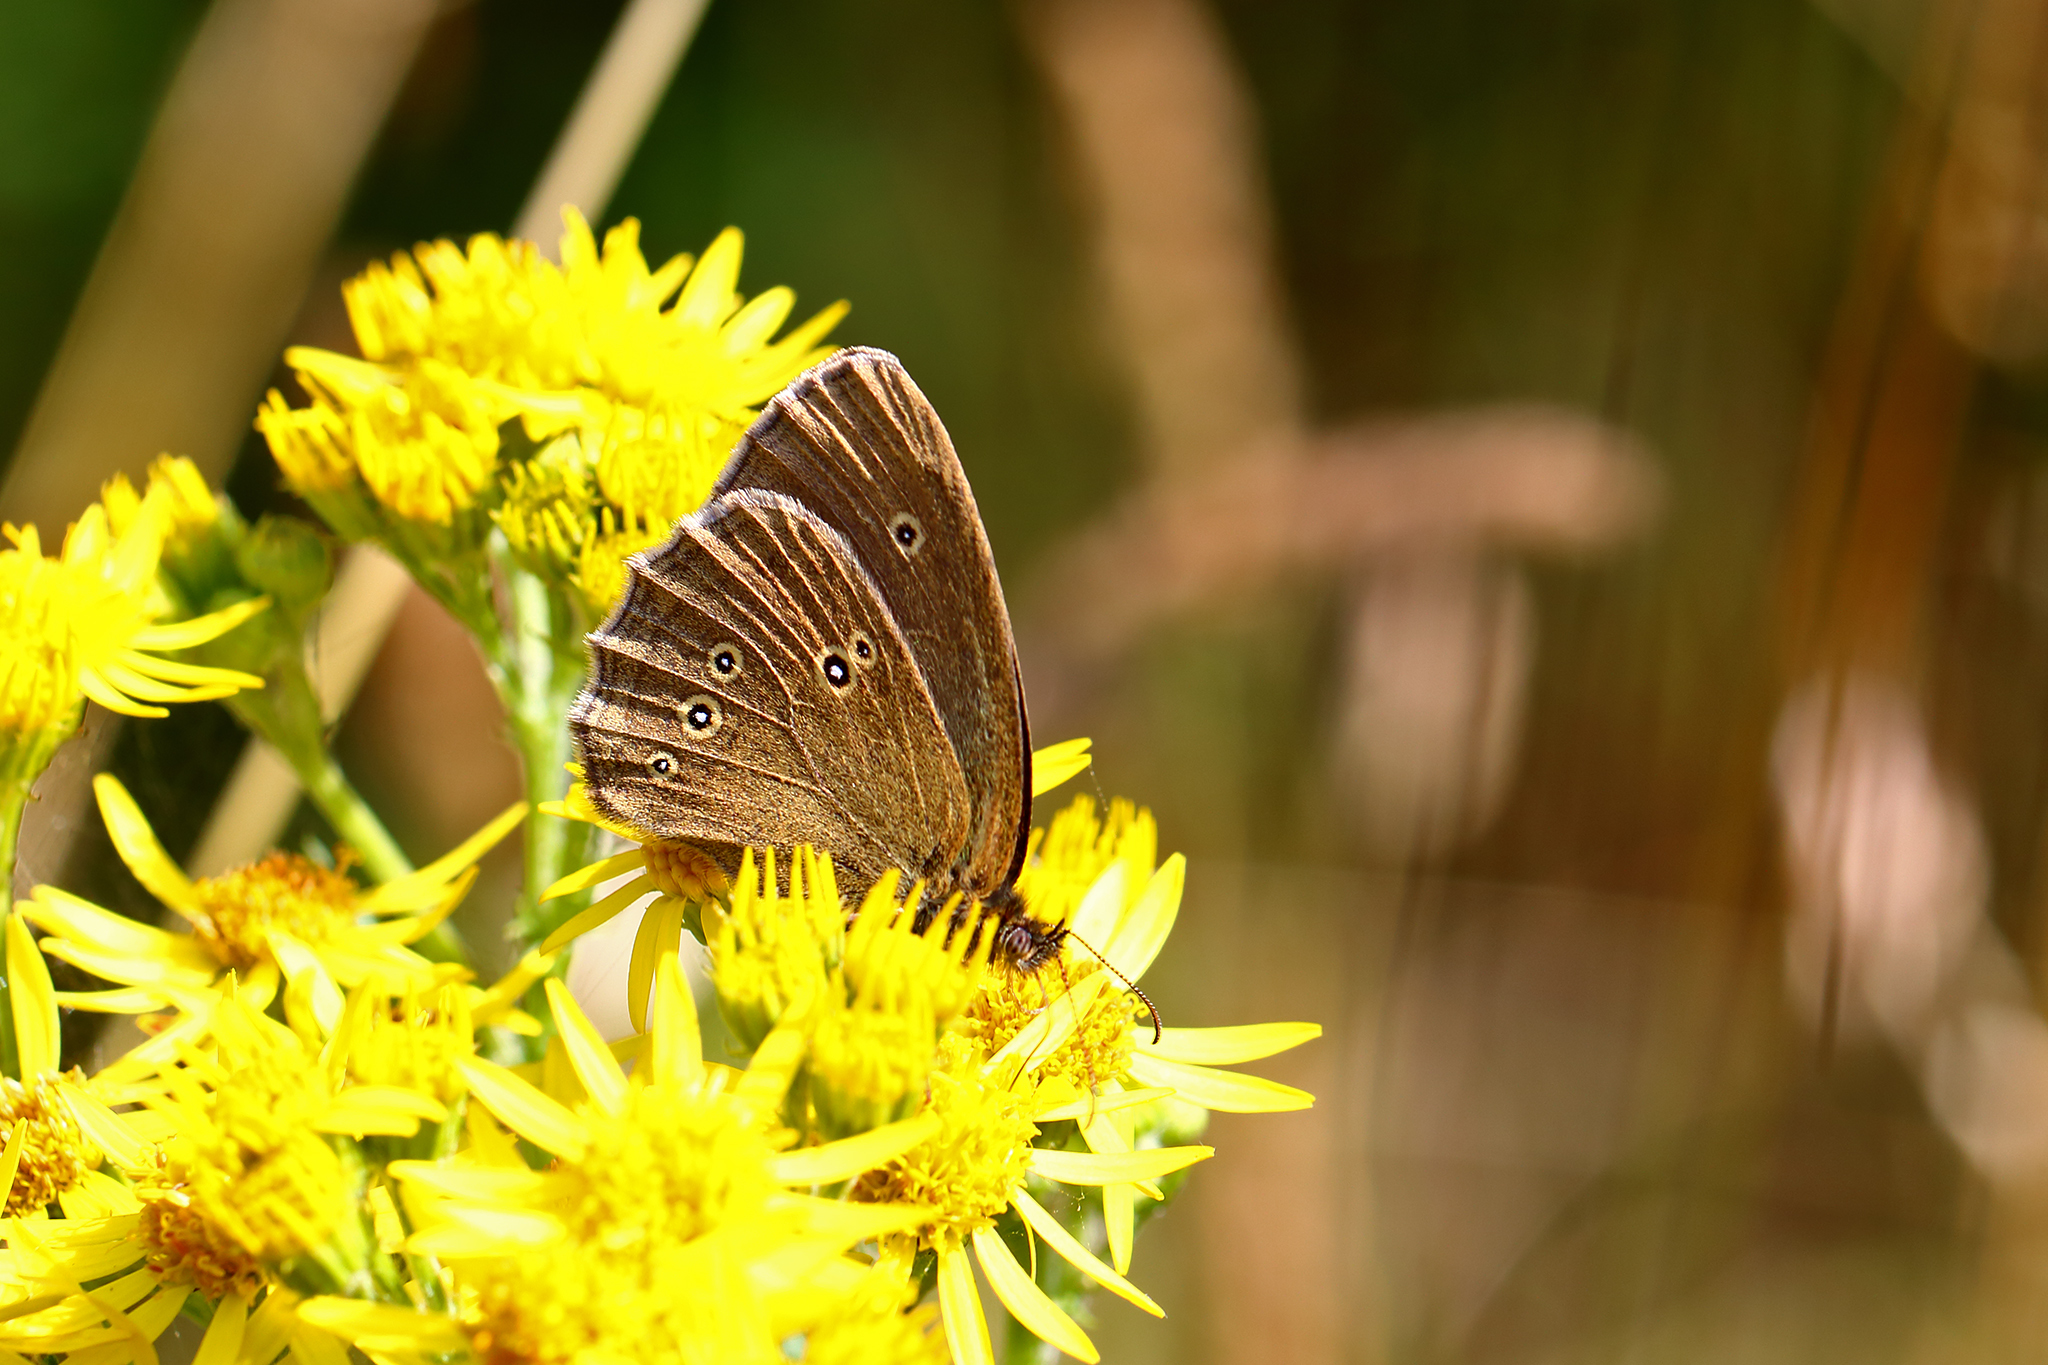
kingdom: Animalia
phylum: Arthropoda
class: Insecta
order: Lepidoptera
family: Nymphalidae
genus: Aphantopus
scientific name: Aphantopus hyperantus
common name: Ringlet
